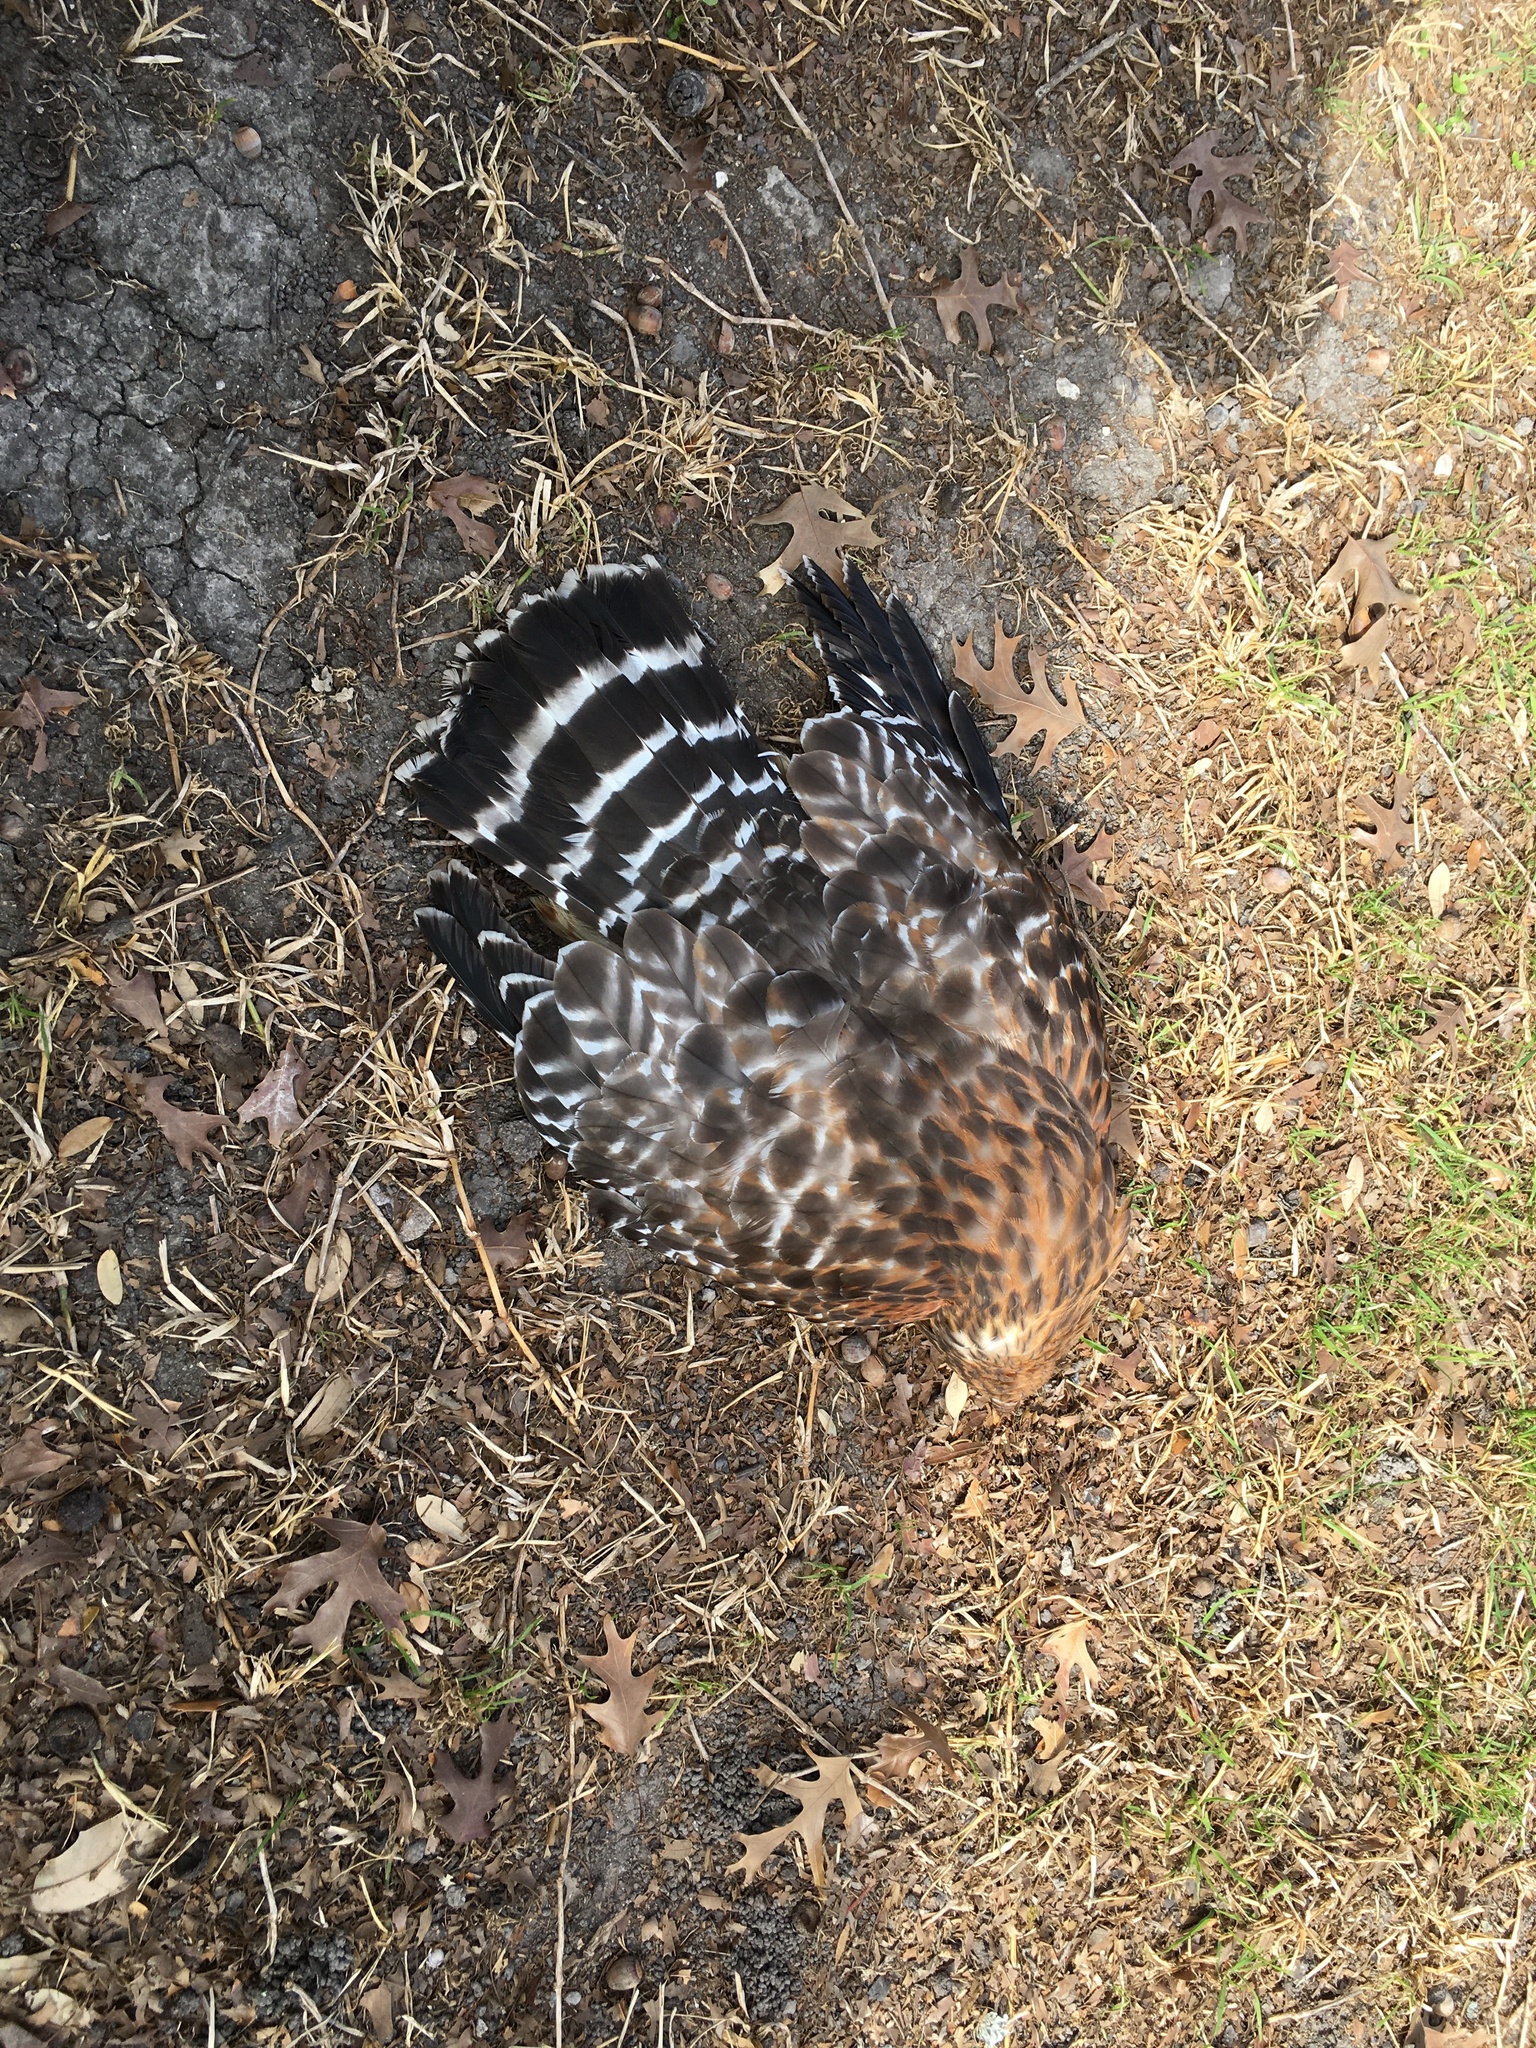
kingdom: Animalia
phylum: Chordata
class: Aves
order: Accipitriformes
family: Accipitridae
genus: Buteo
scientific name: Buteo lineatus
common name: Red-shouldered hawk
